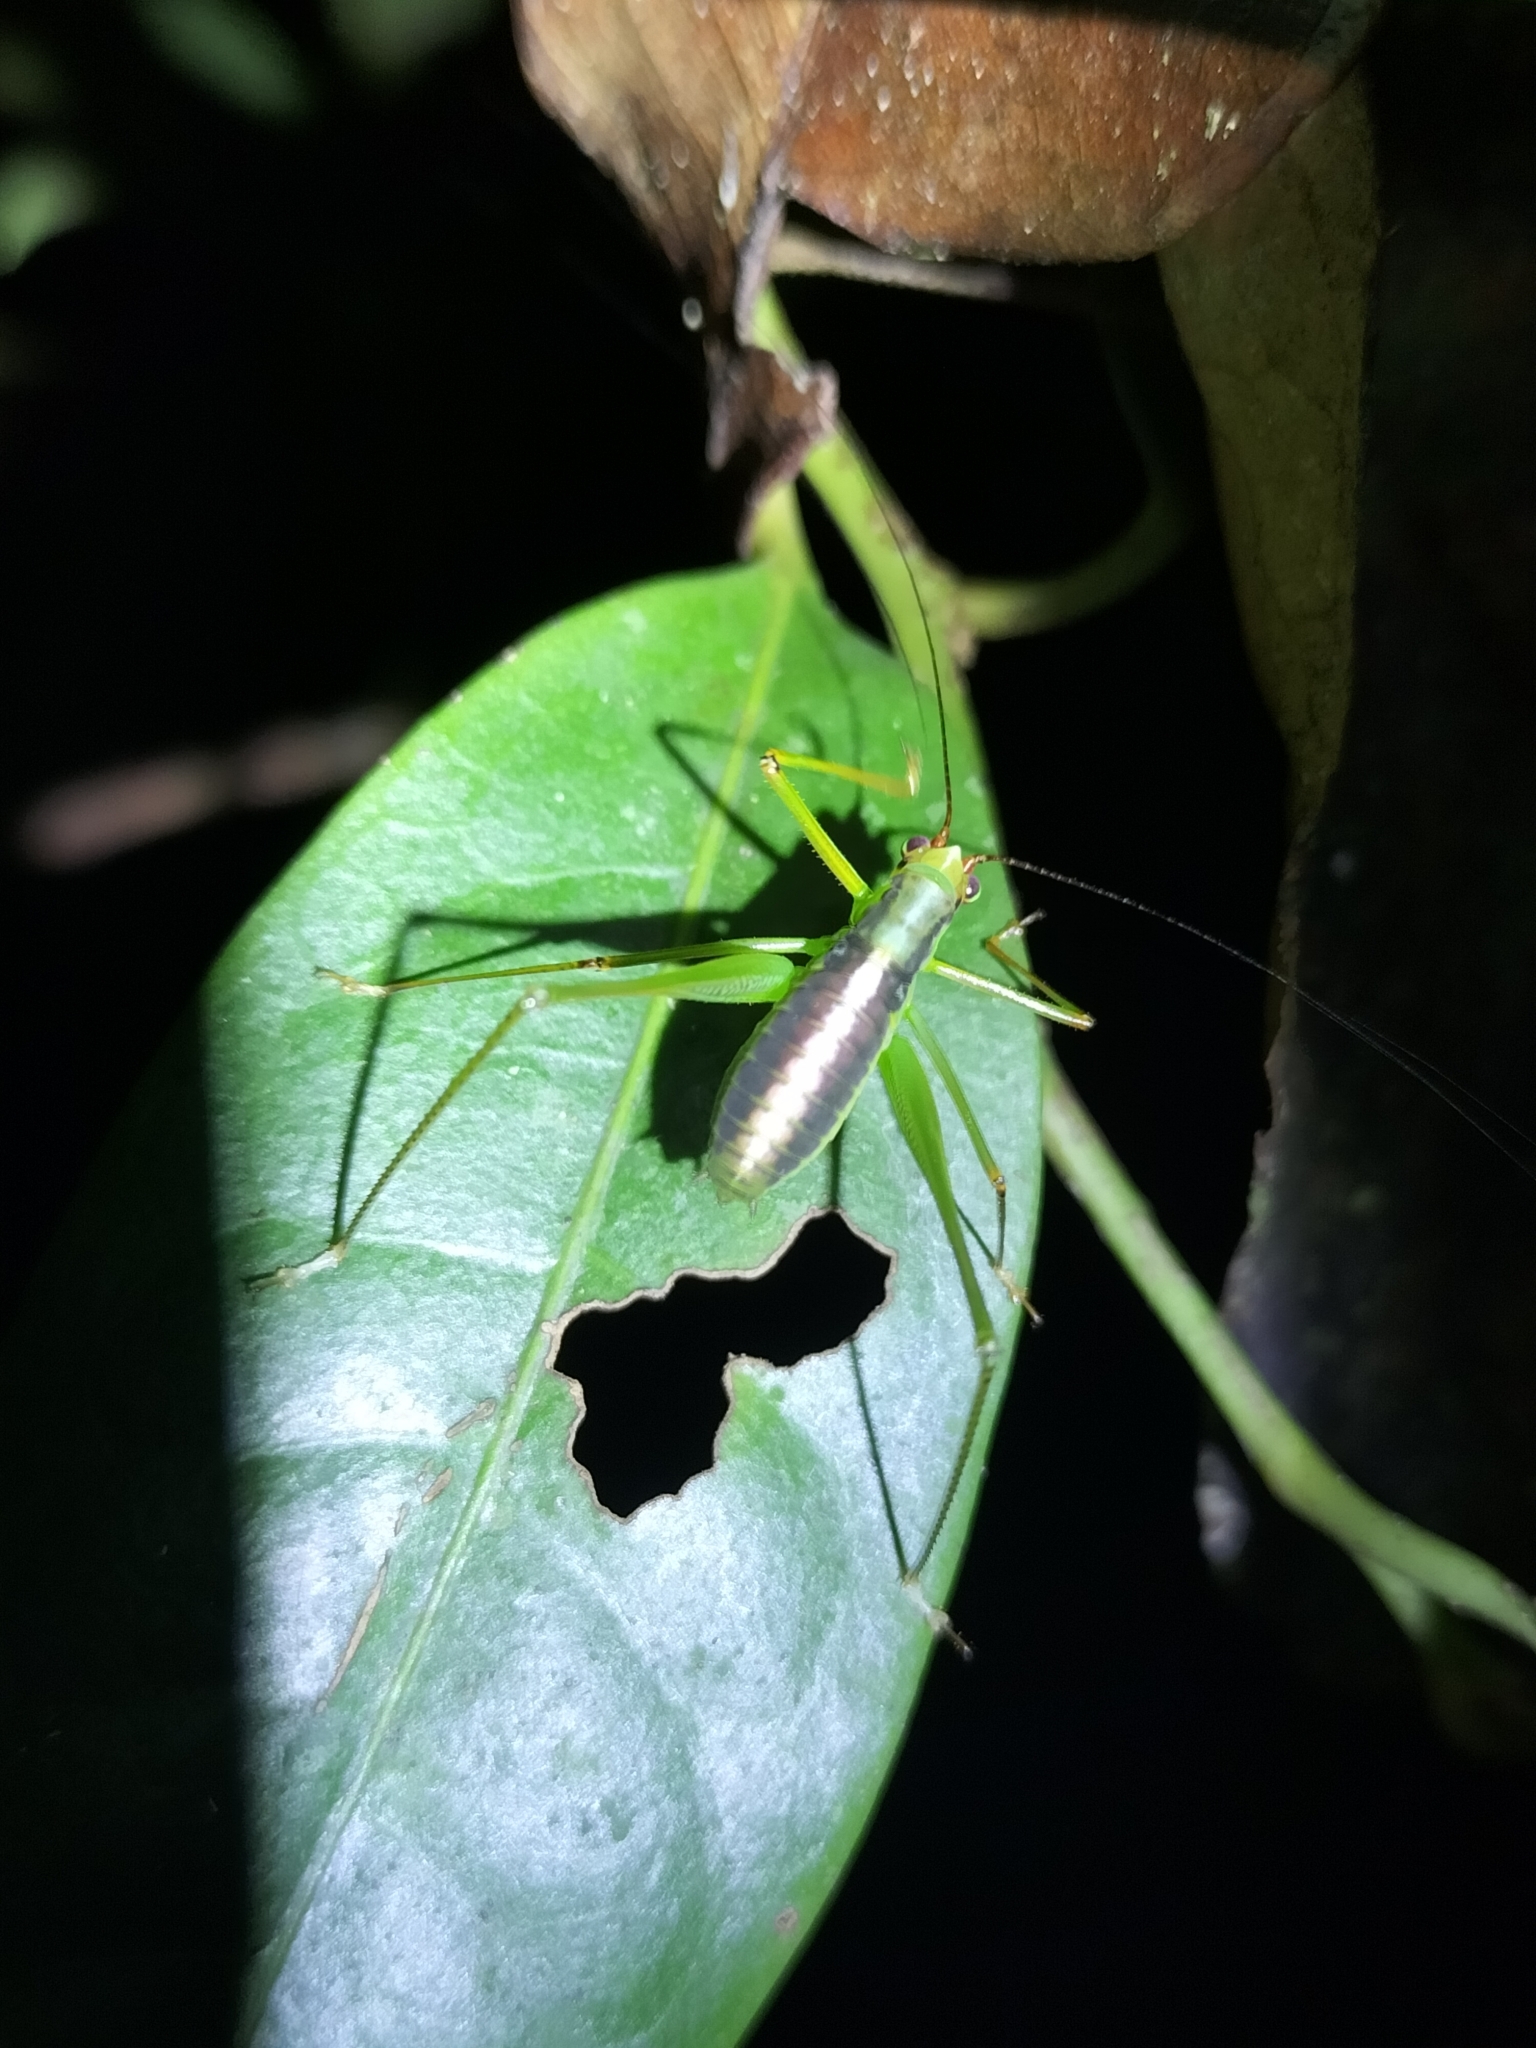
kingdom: Animalia
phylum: Arthropoda
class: Insecta
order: Orthoptera
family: Tettigoniidae
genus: Leucopodoptera
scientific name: Leucopodoptera eumundii
